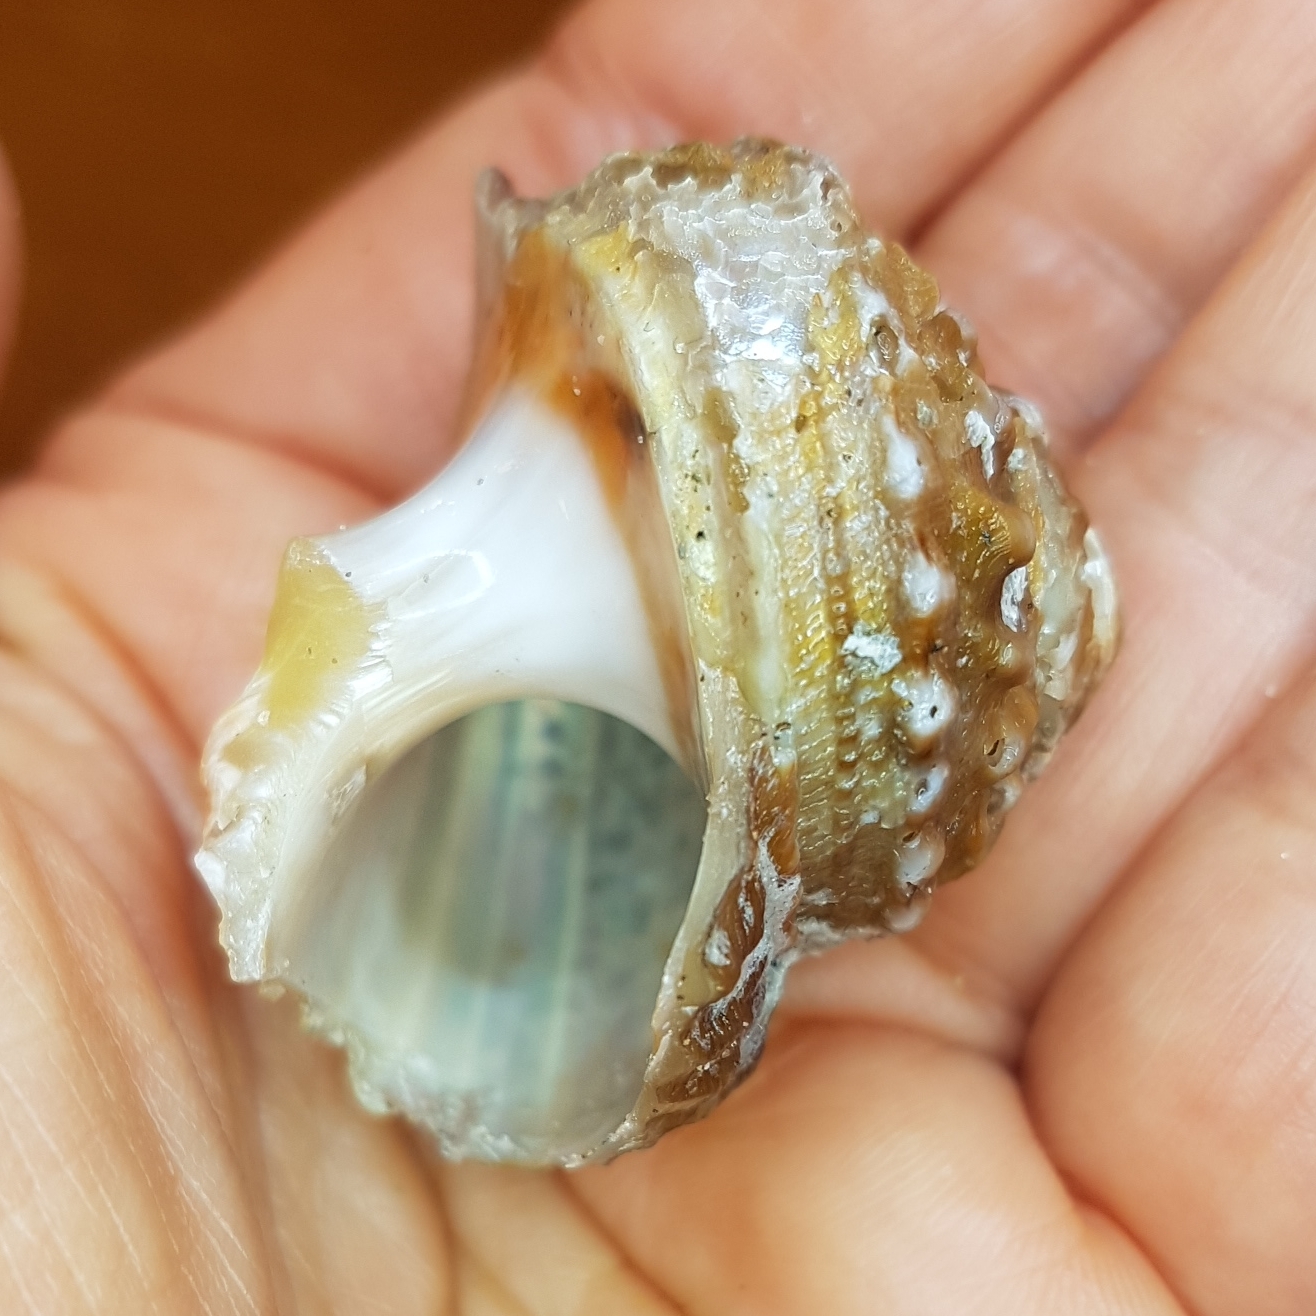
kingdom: Animalia
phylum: Mollusca
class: Gastropoda
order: Trochida
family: Turbinidae
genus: Bolma
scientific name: Bolma rugosa
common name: Rough star shell
